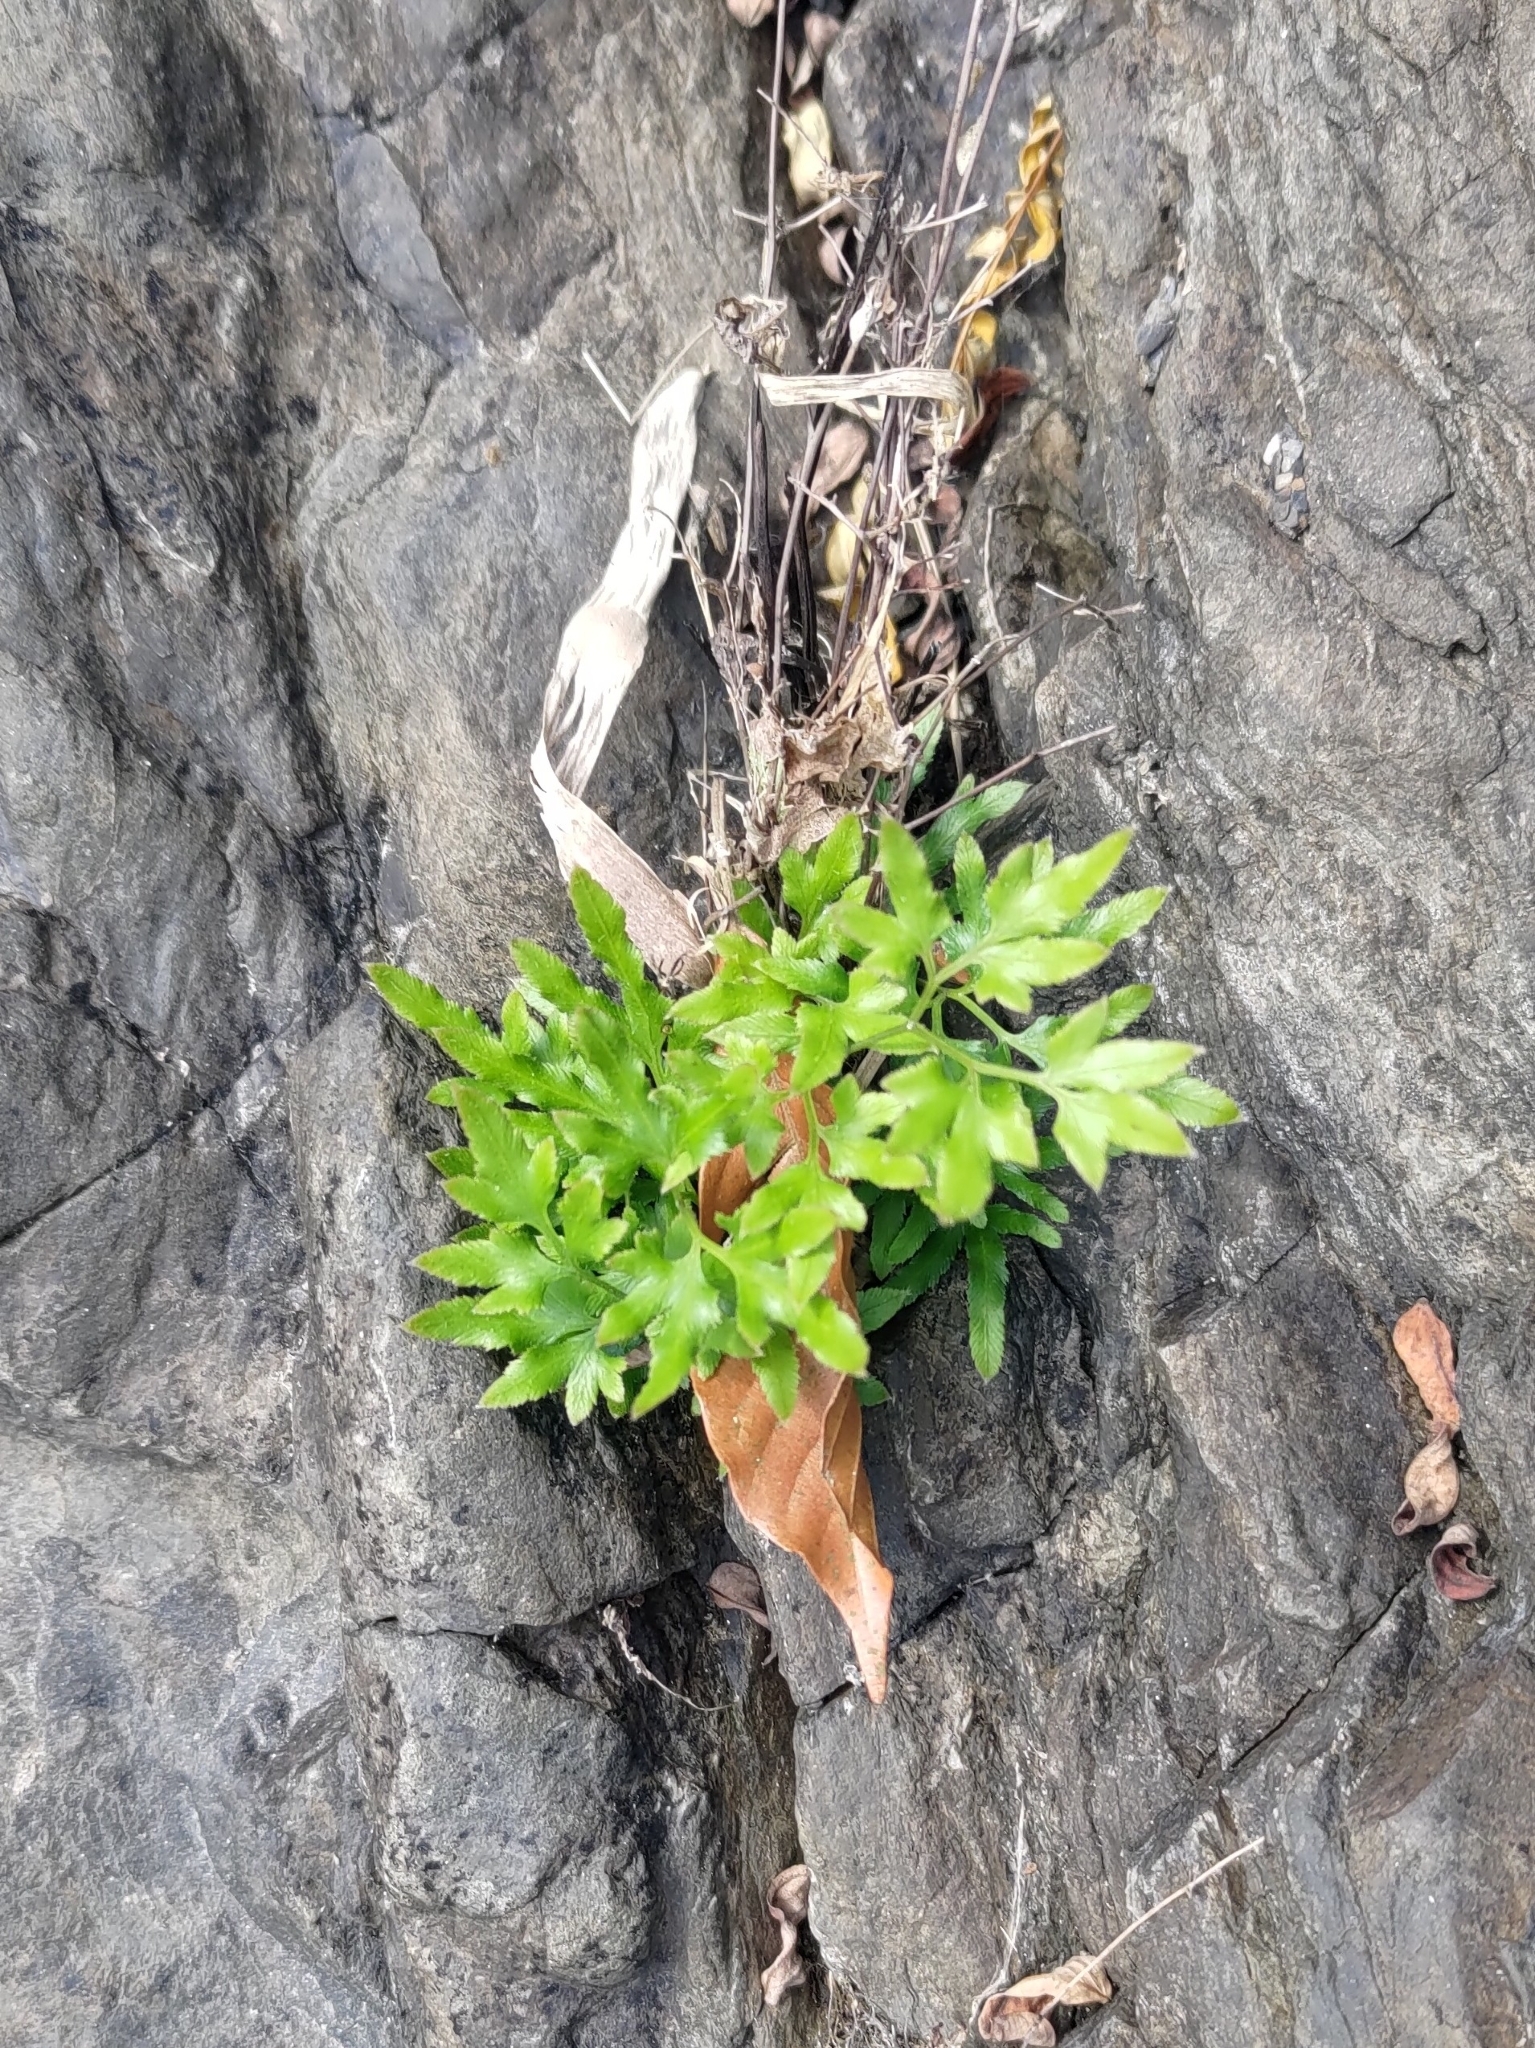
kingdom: Plantae
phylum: Tracheophyta
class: Polypodiopsida
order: Schizaeales
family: Lygodiaceae
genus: Lygodium
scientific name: Lygodium japonicum
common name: Japanese climbing fern
